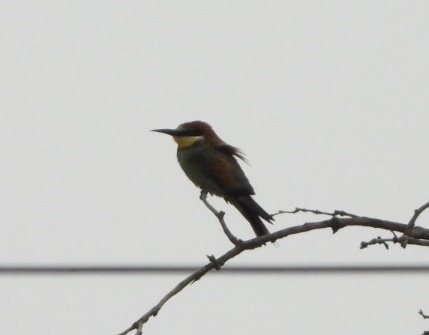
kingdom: Animalia
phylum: Chordata
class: Aves
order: Coraciiformes
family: Meropidae
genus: Merops
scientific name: Merops apiaster
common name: European bee-eater
